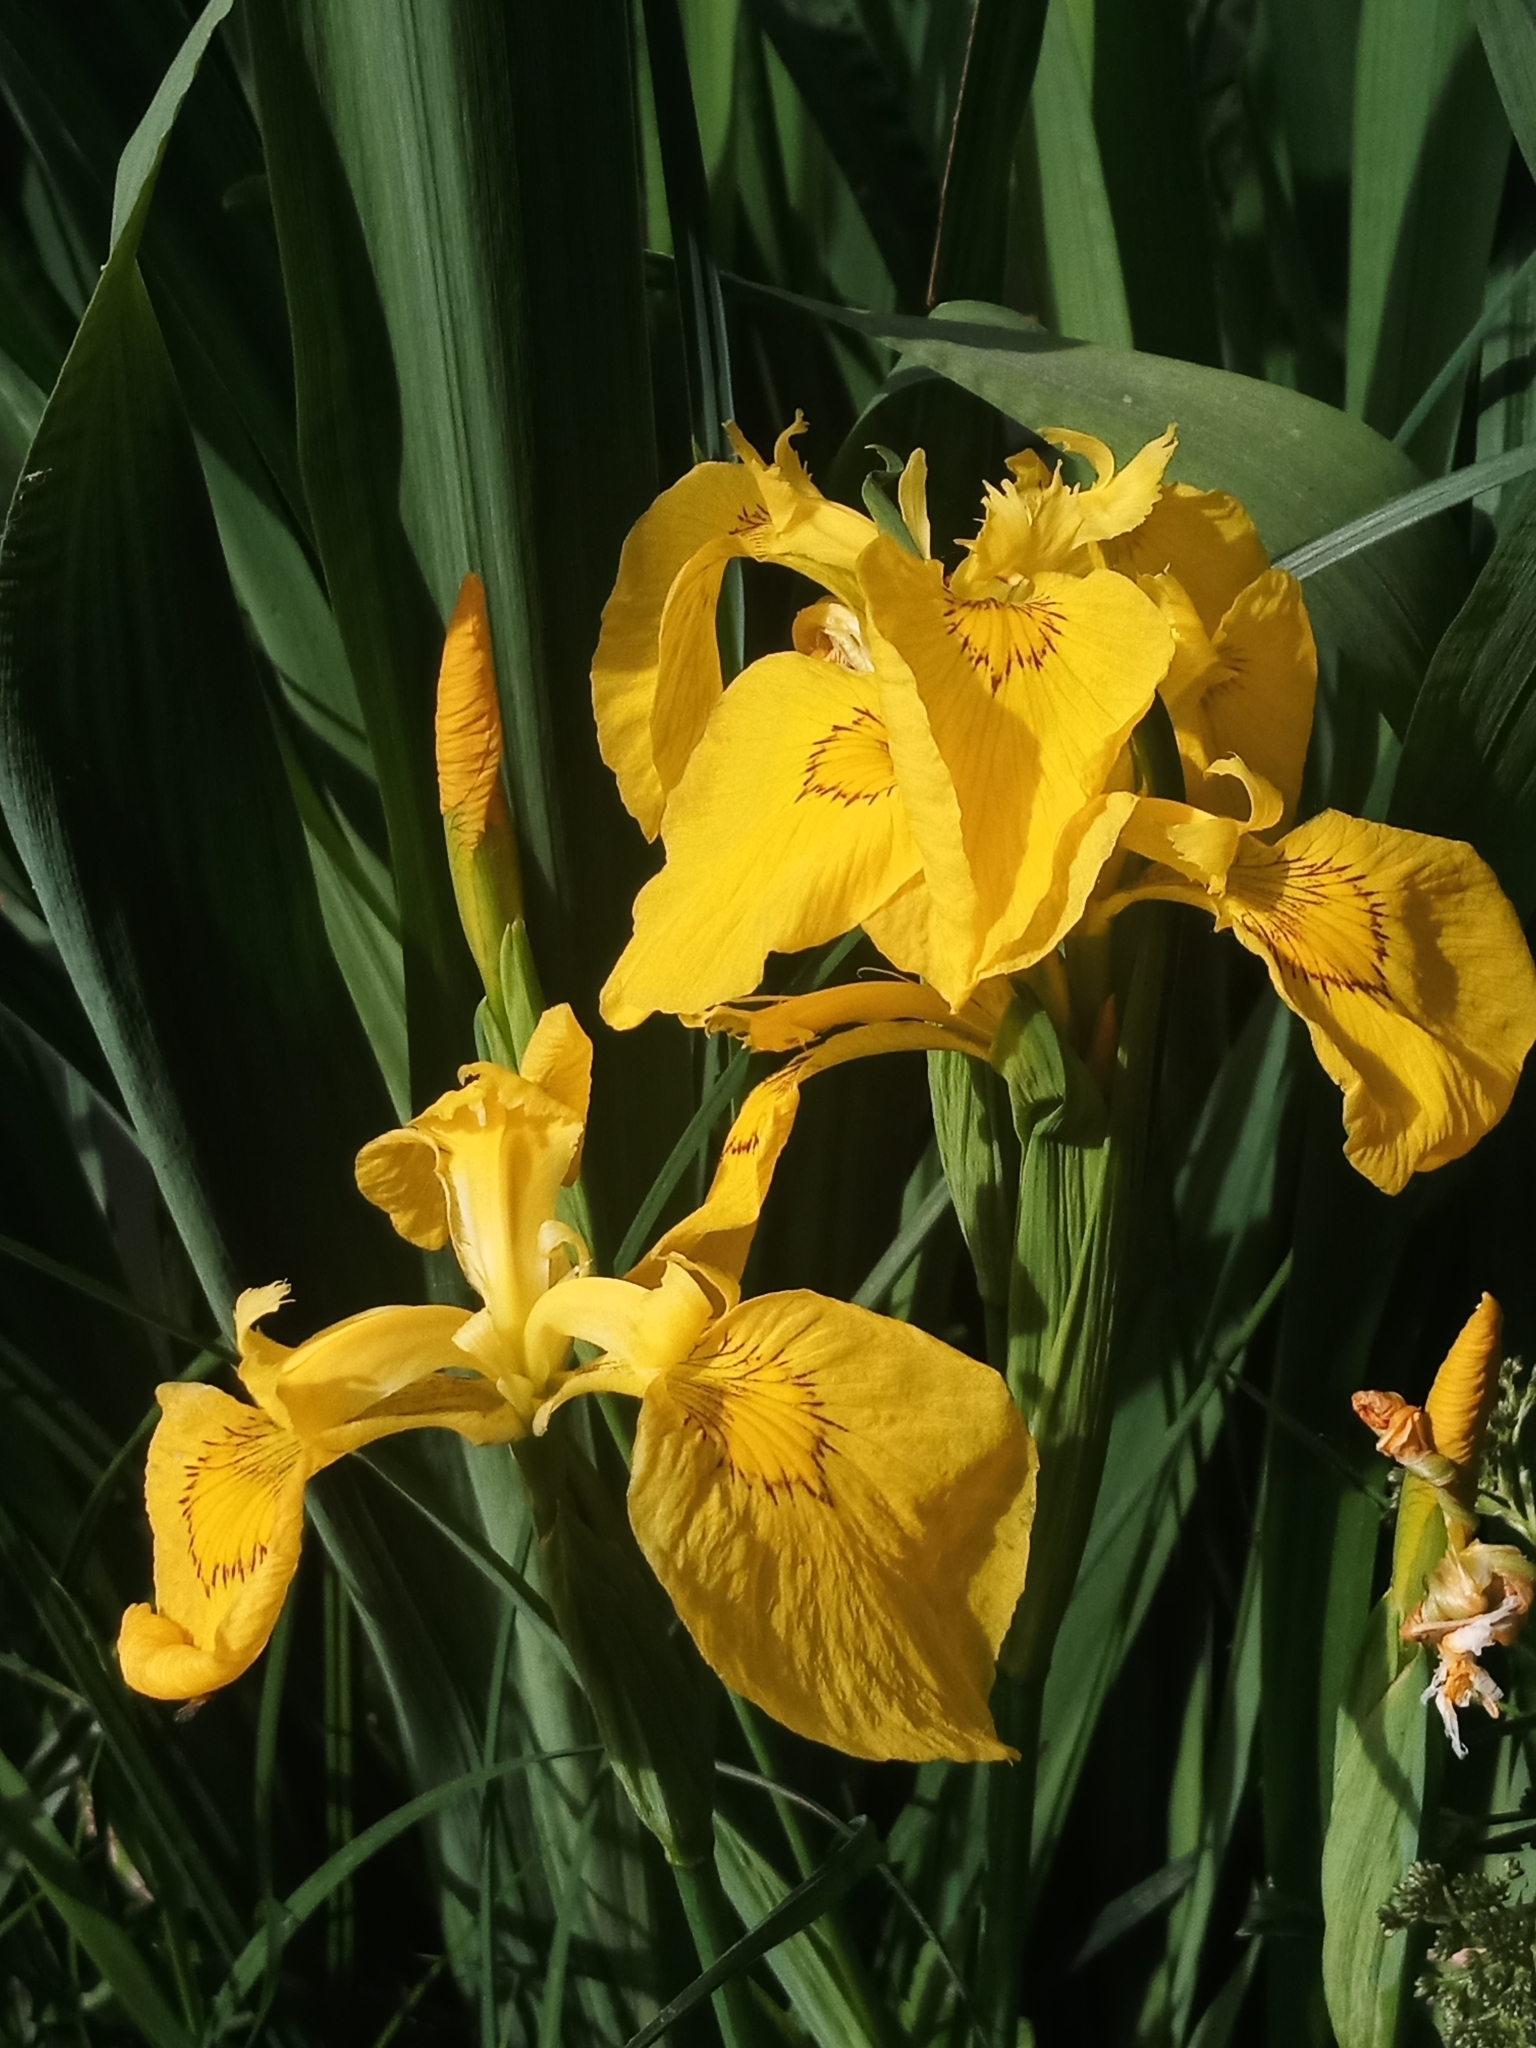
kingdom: Plantae
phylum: Tracheophyta
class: Liliopsida
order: Asparagales
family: Iridaceae
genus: Iris
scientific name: Iris pseudacorus
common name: Yellow flag
